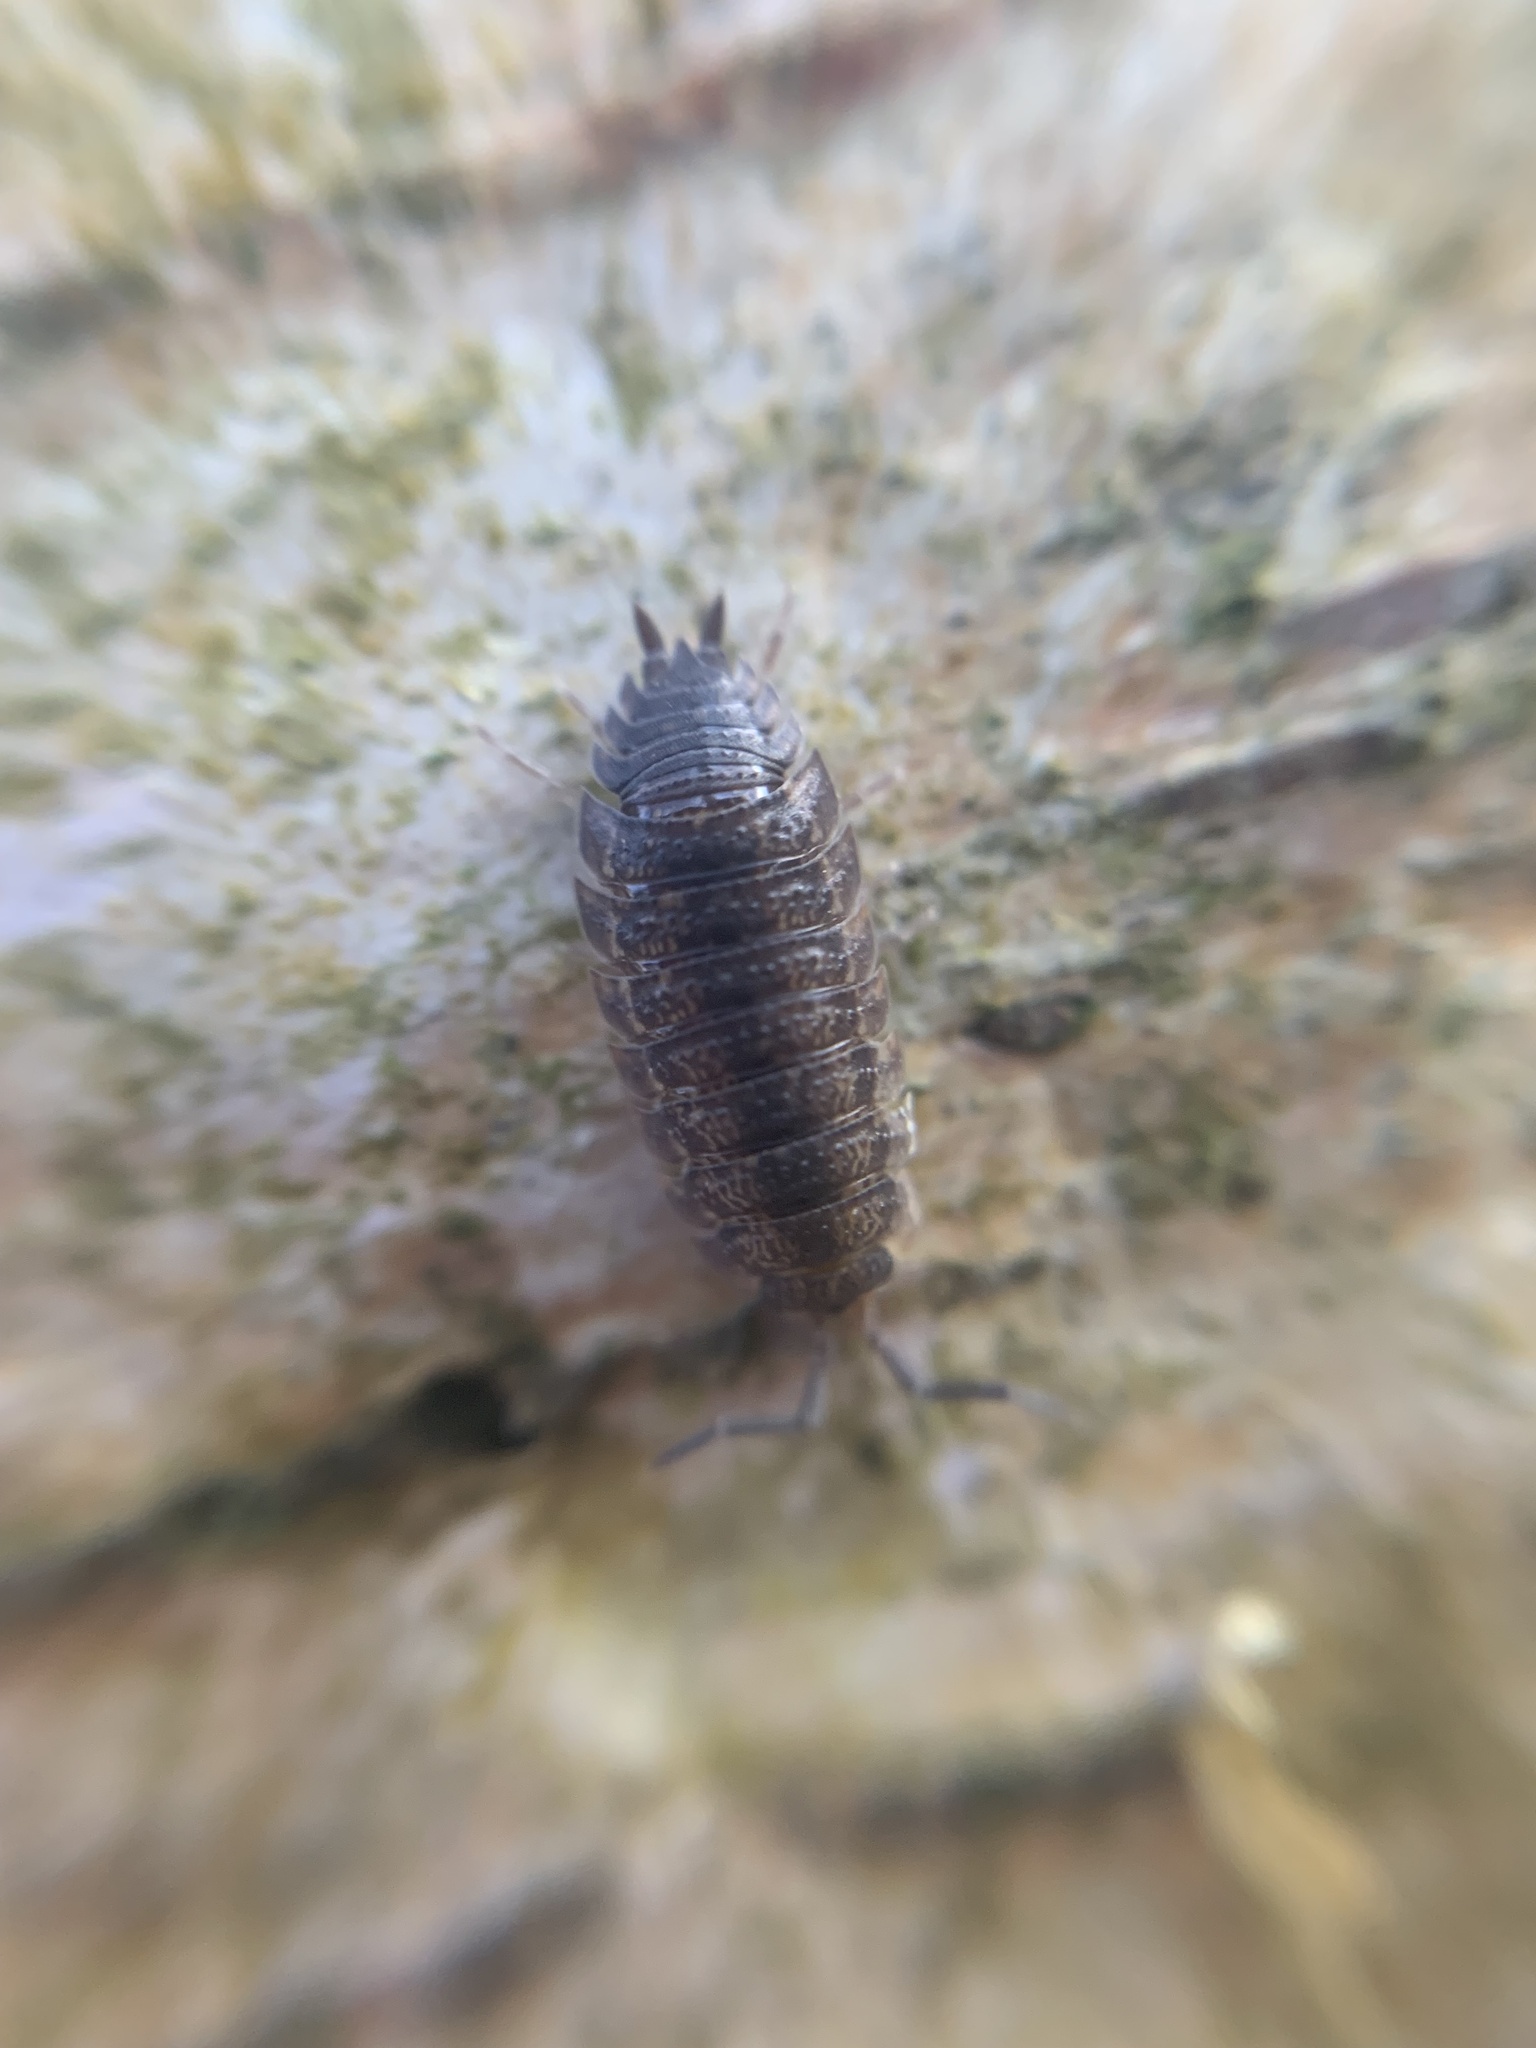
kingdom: Animalia
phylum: Arthropoda
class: Malacostraca
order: Isopoda
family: Porcellionidae
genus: Porcellio
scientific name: Porcellio scaber
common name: Common rough woodlouse
